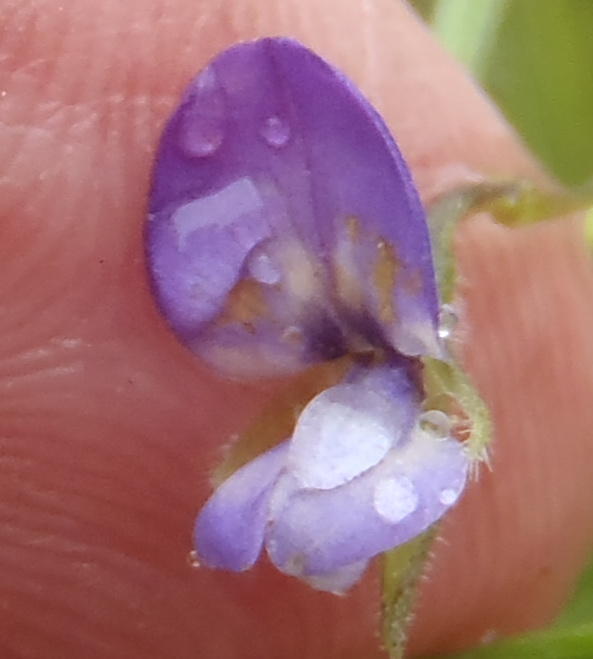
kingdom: Plantae
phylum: Tracheophyta
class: Magnoliopsida
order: Fabales
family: Fabaceae
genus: Psoralea
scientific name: Psoralea plauta
